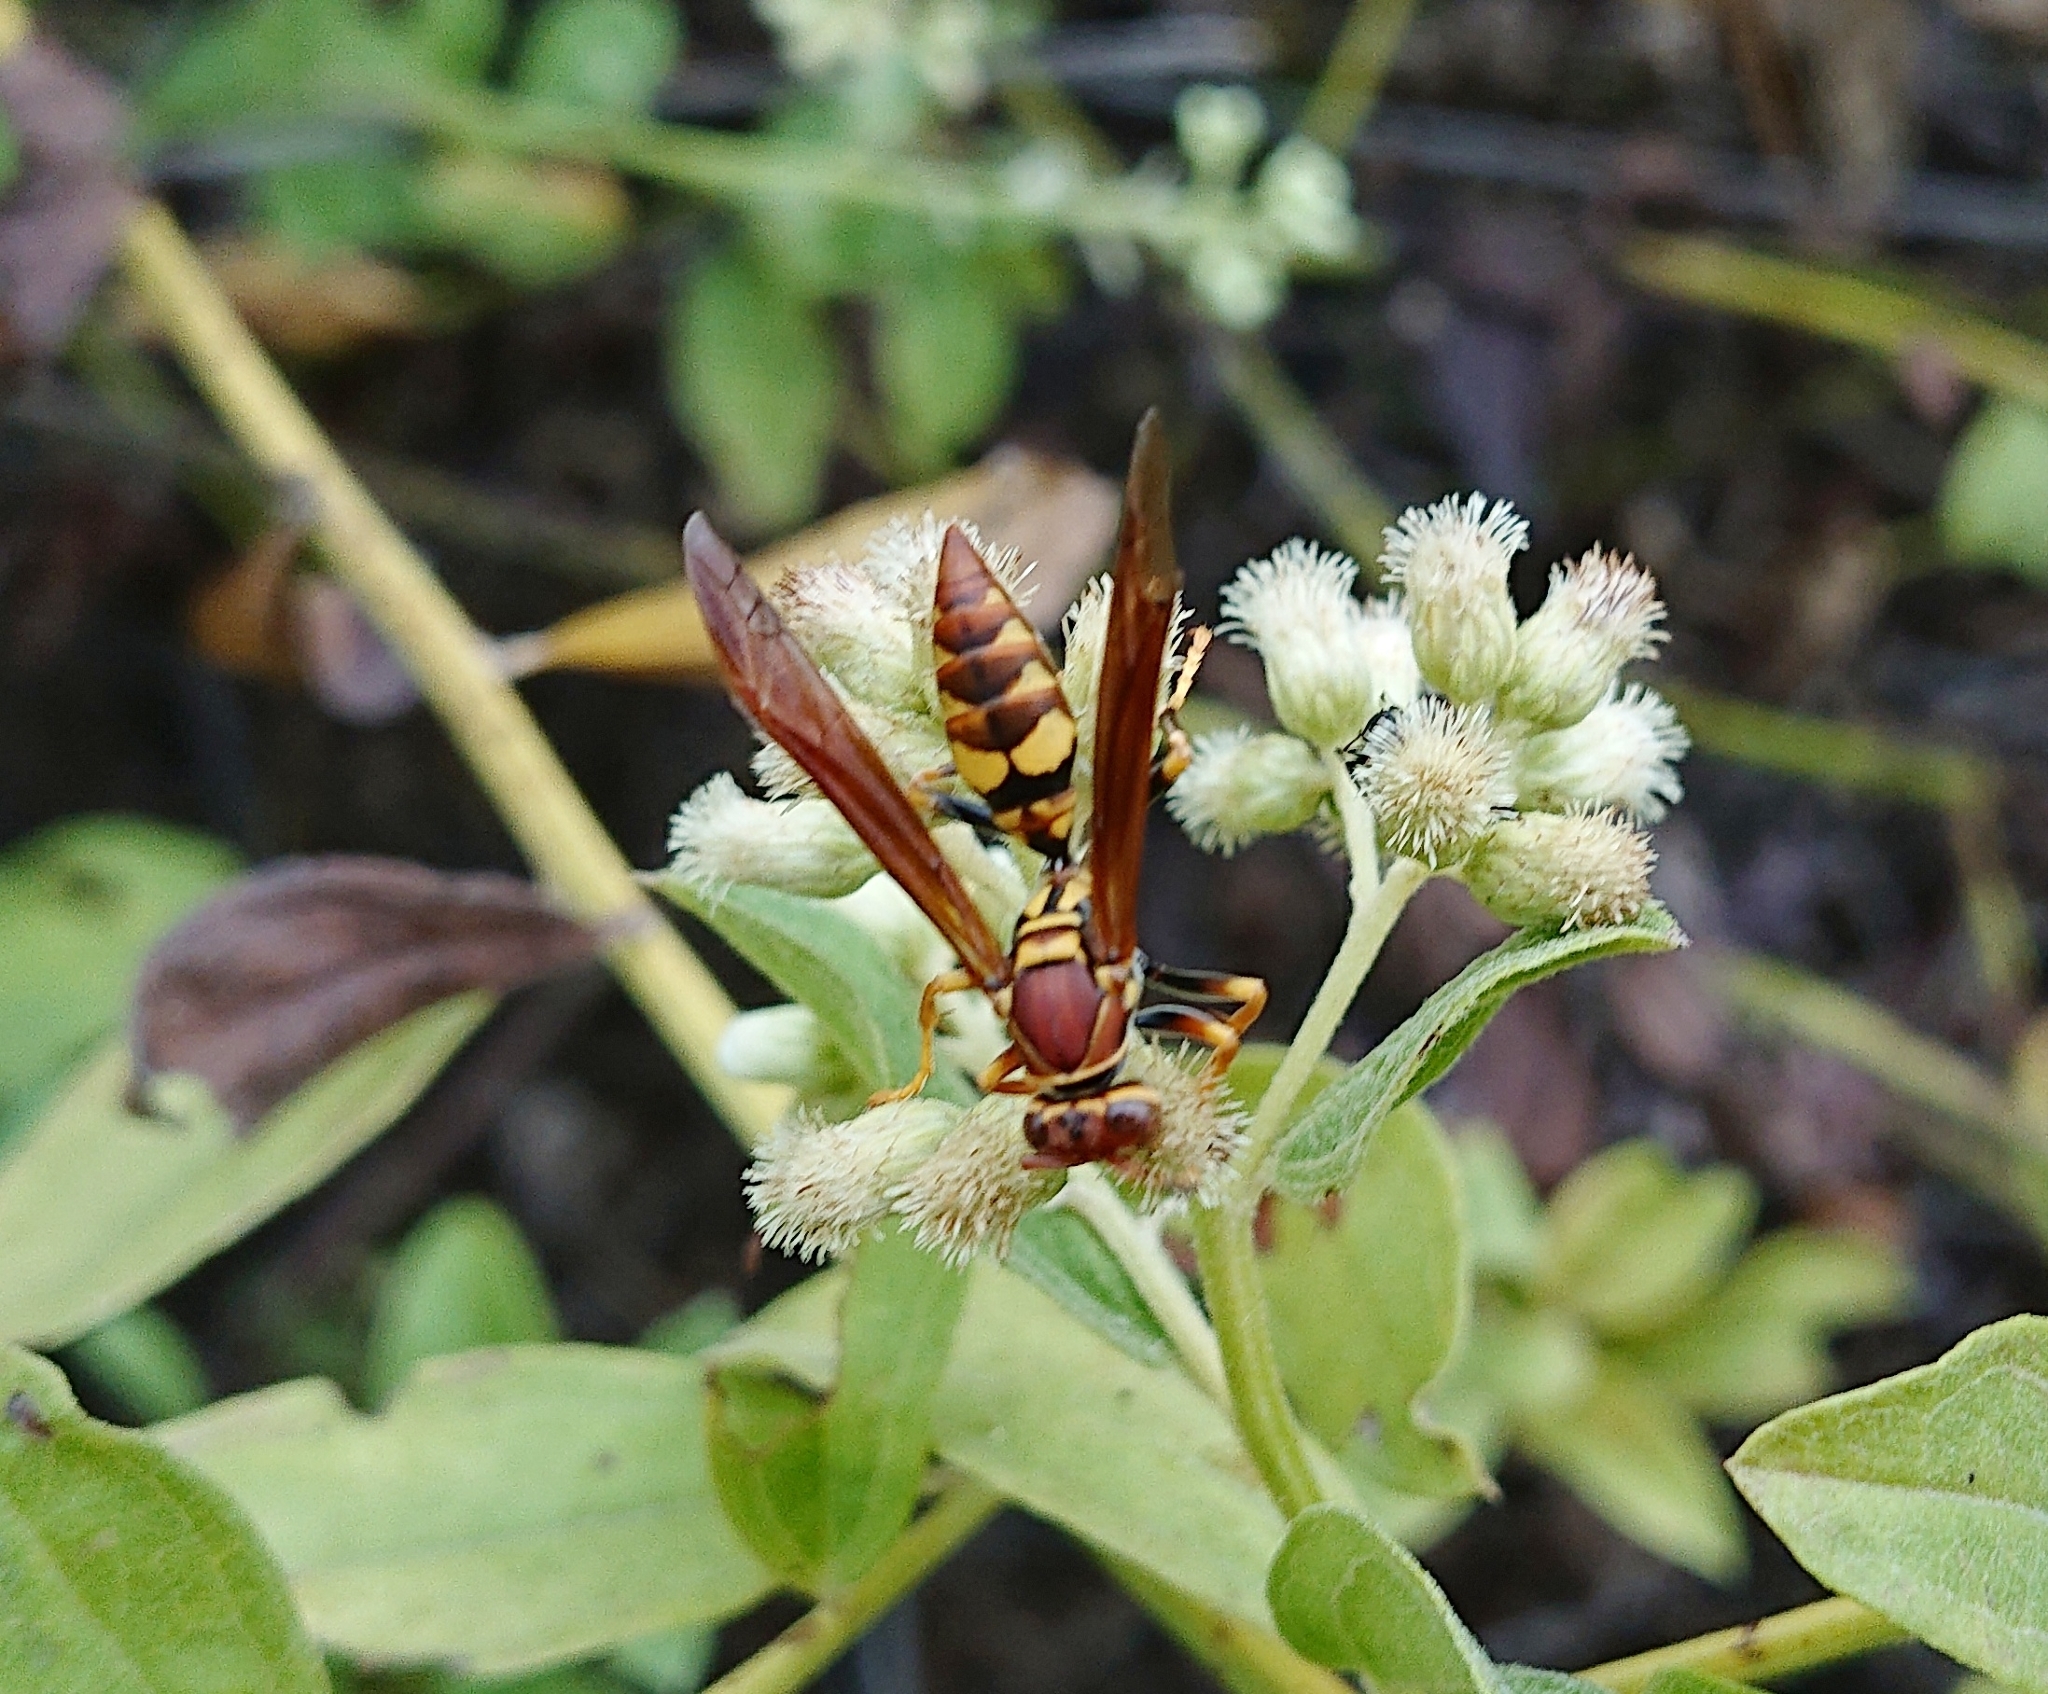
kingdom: Animalia
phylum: Arthropoda
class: Insecta
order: Hymenoptera
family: Eumenidae
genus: Polistes
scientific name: Polistes versicolor
